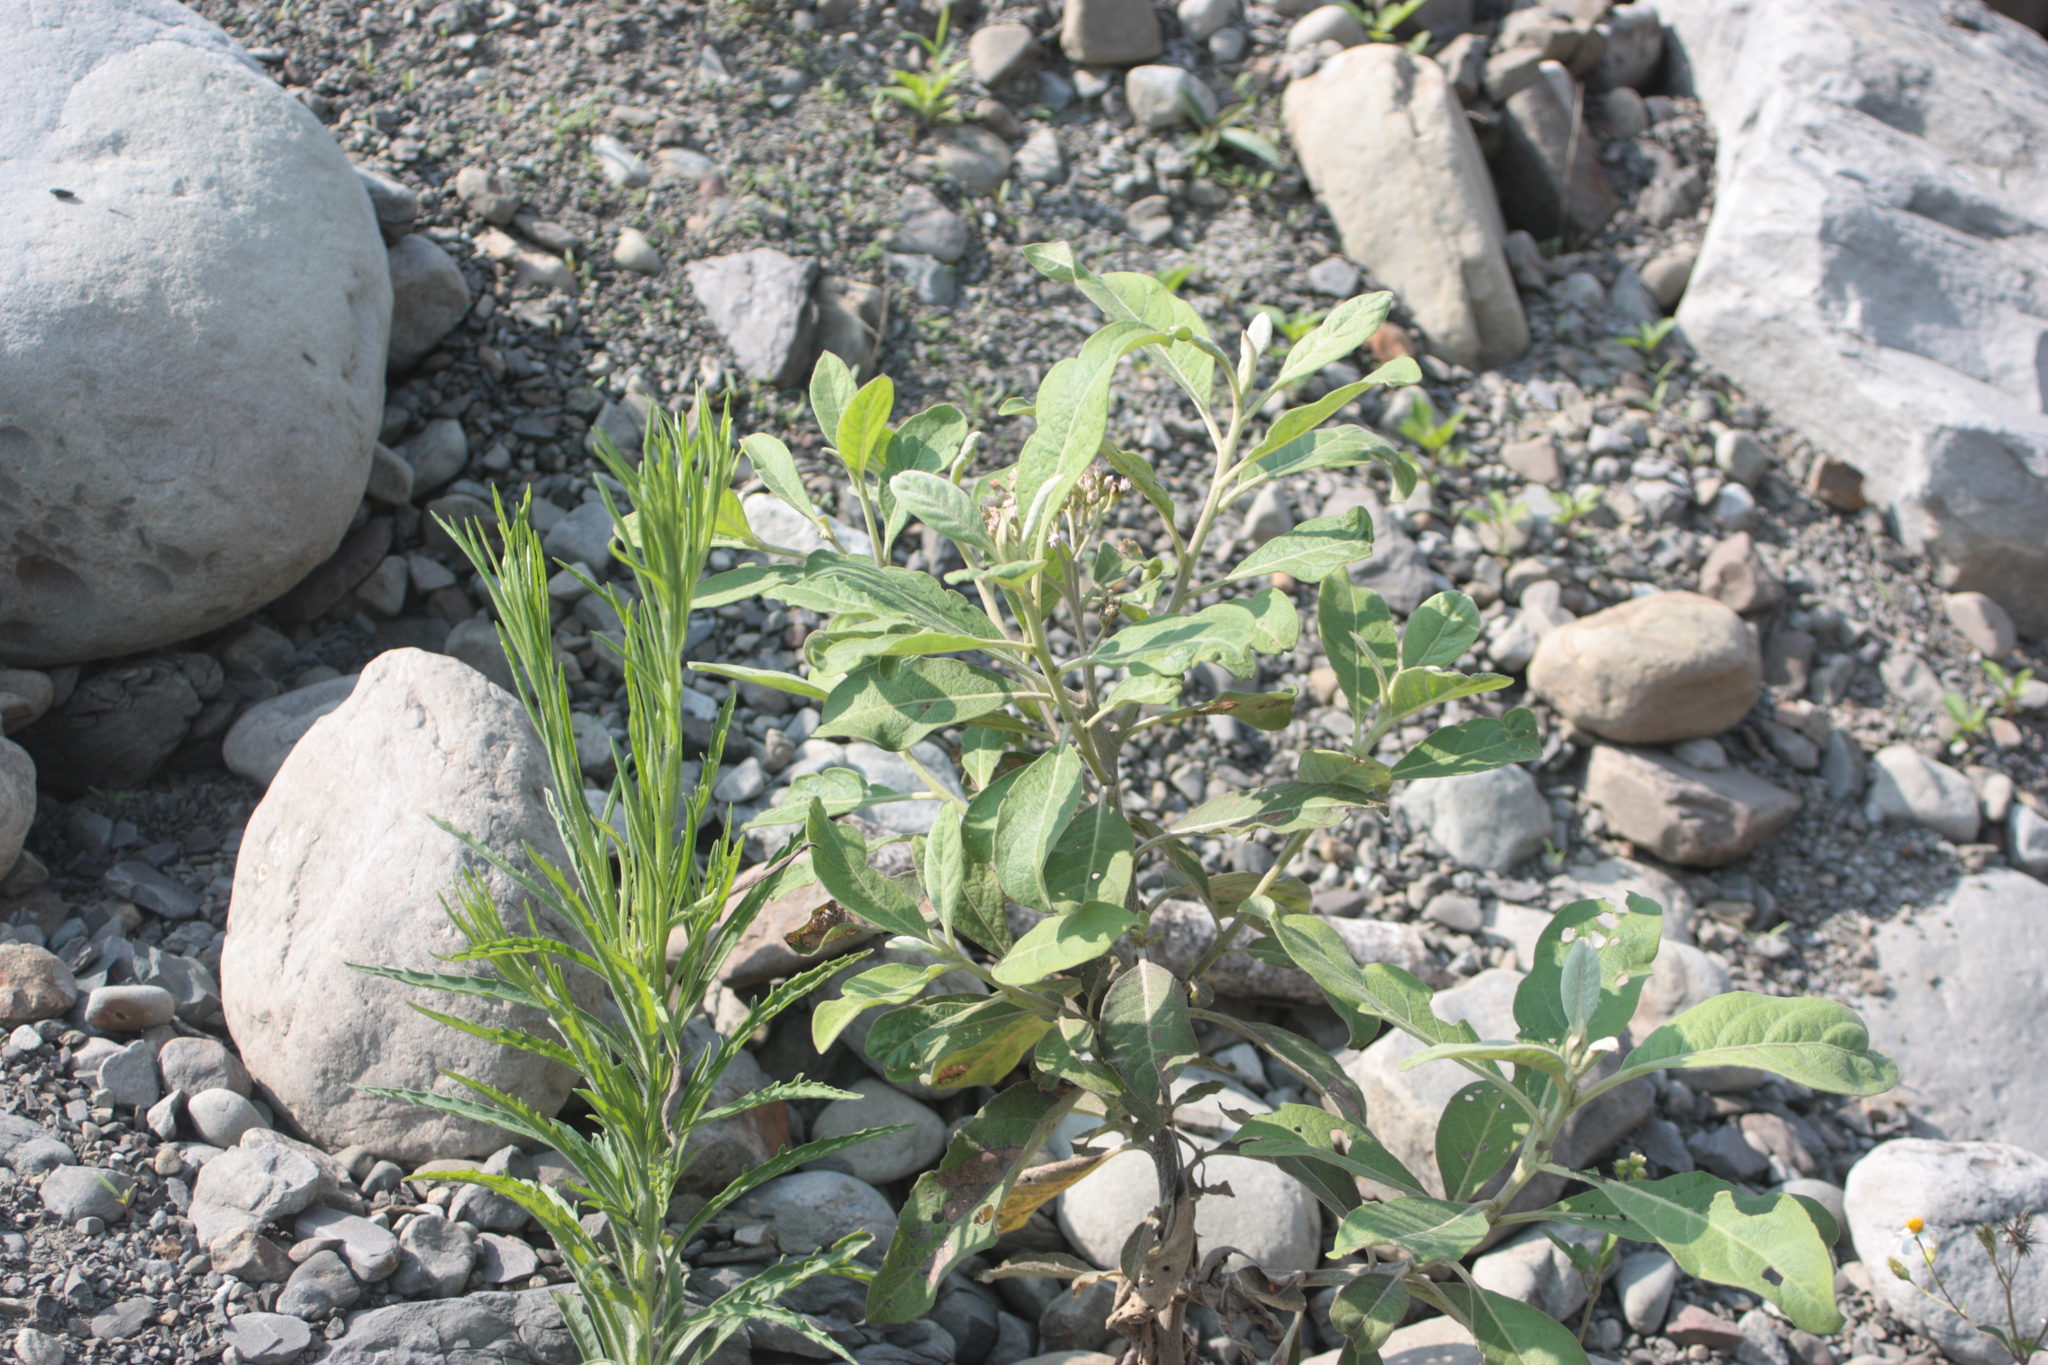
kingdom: Plantae
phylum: Tracheophyta
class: Magnoliopsida
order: Asterales
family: Asteraceae
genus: Pluchea
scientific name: Pluchea carolinensis
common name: Marsh fleabane
